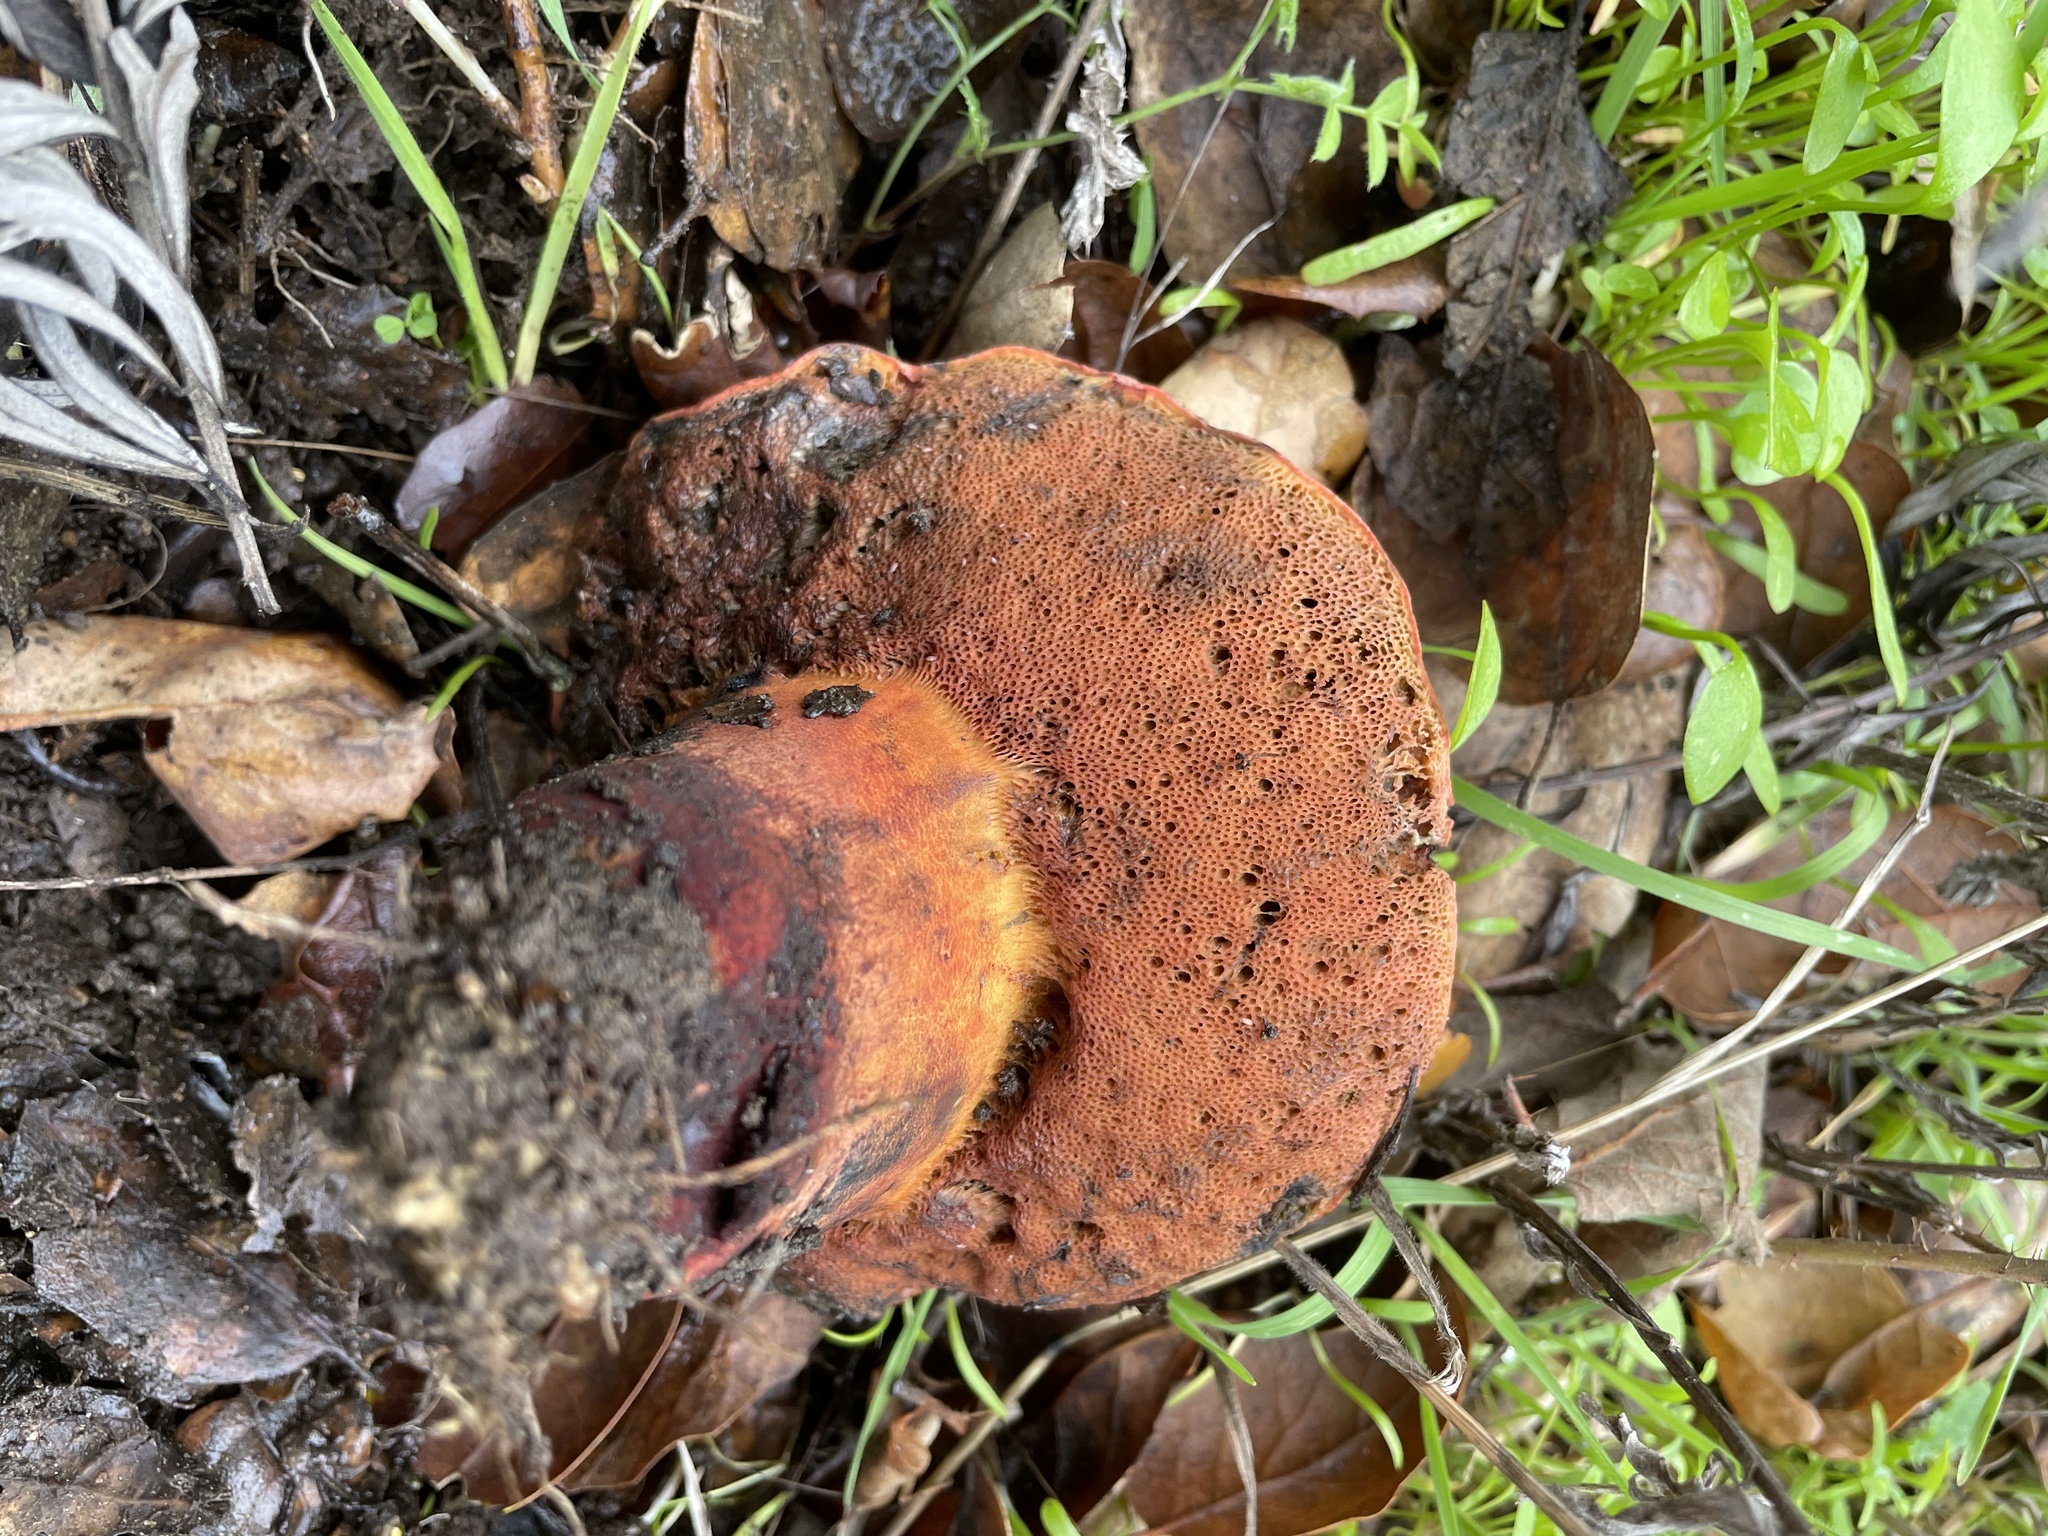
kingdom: Fungi
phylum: Basidiomycota
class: Agaricomycetes
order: Boletales
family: Boletaceae
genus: Suillellus
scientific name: Suillellus amygdalinus
